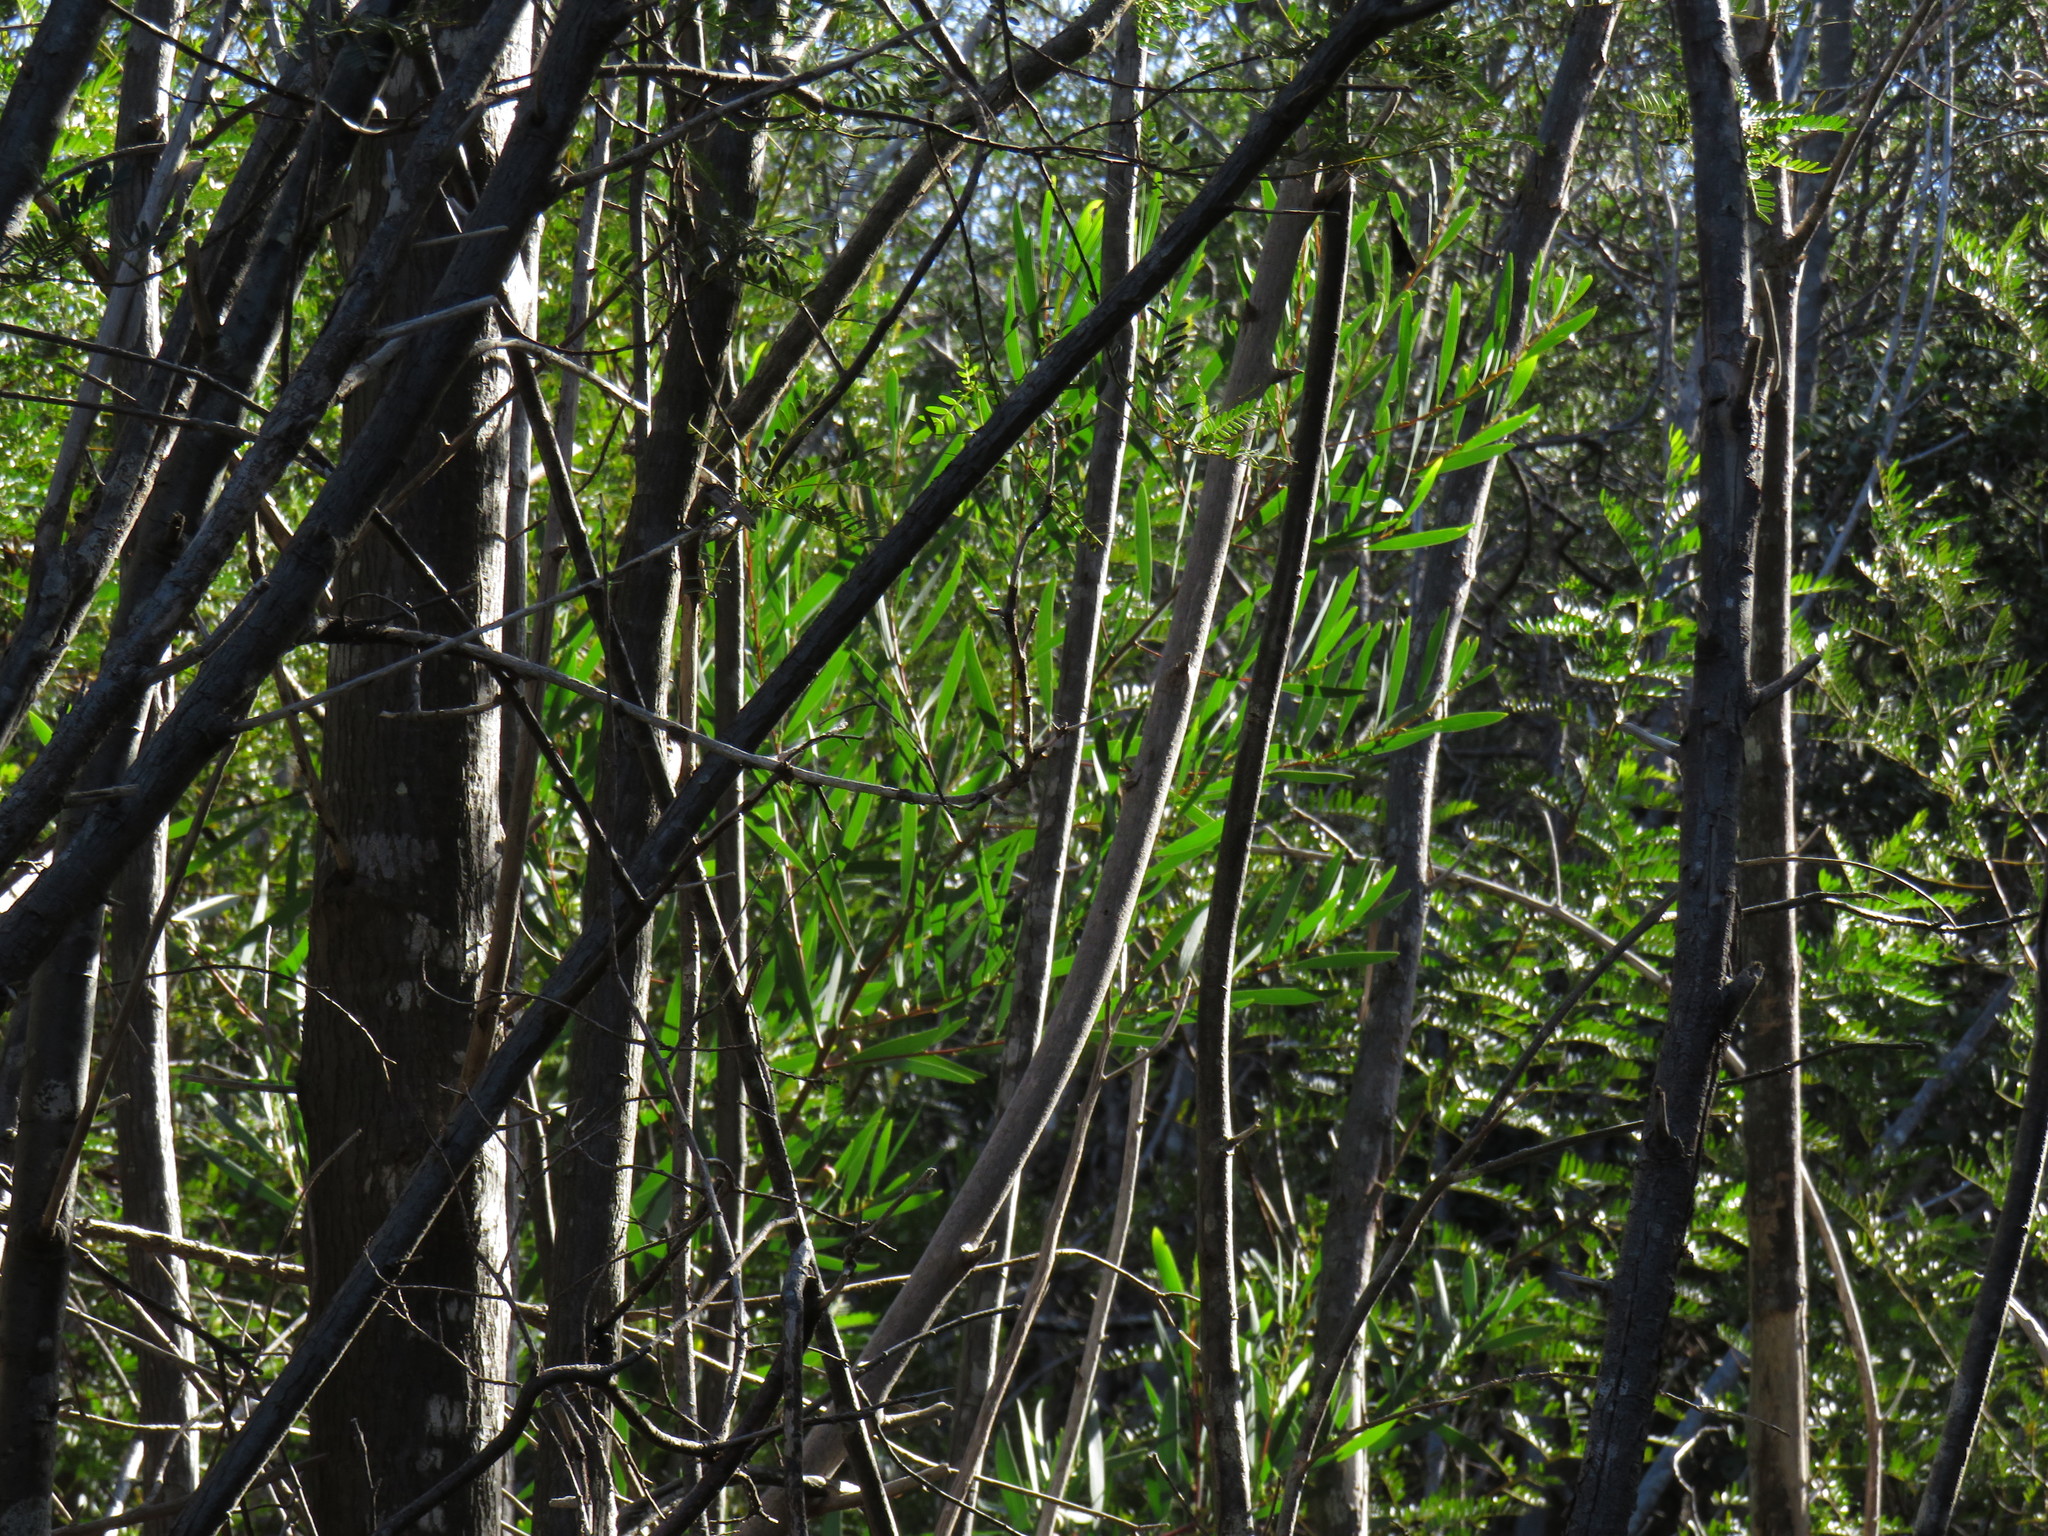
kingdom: Plantae
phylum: Tracheophyta
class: Magnoliopsida
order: Fabales
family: Fabaceae
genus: Acacia
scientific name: Acacia longifolia
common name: Sydney golden wattle
